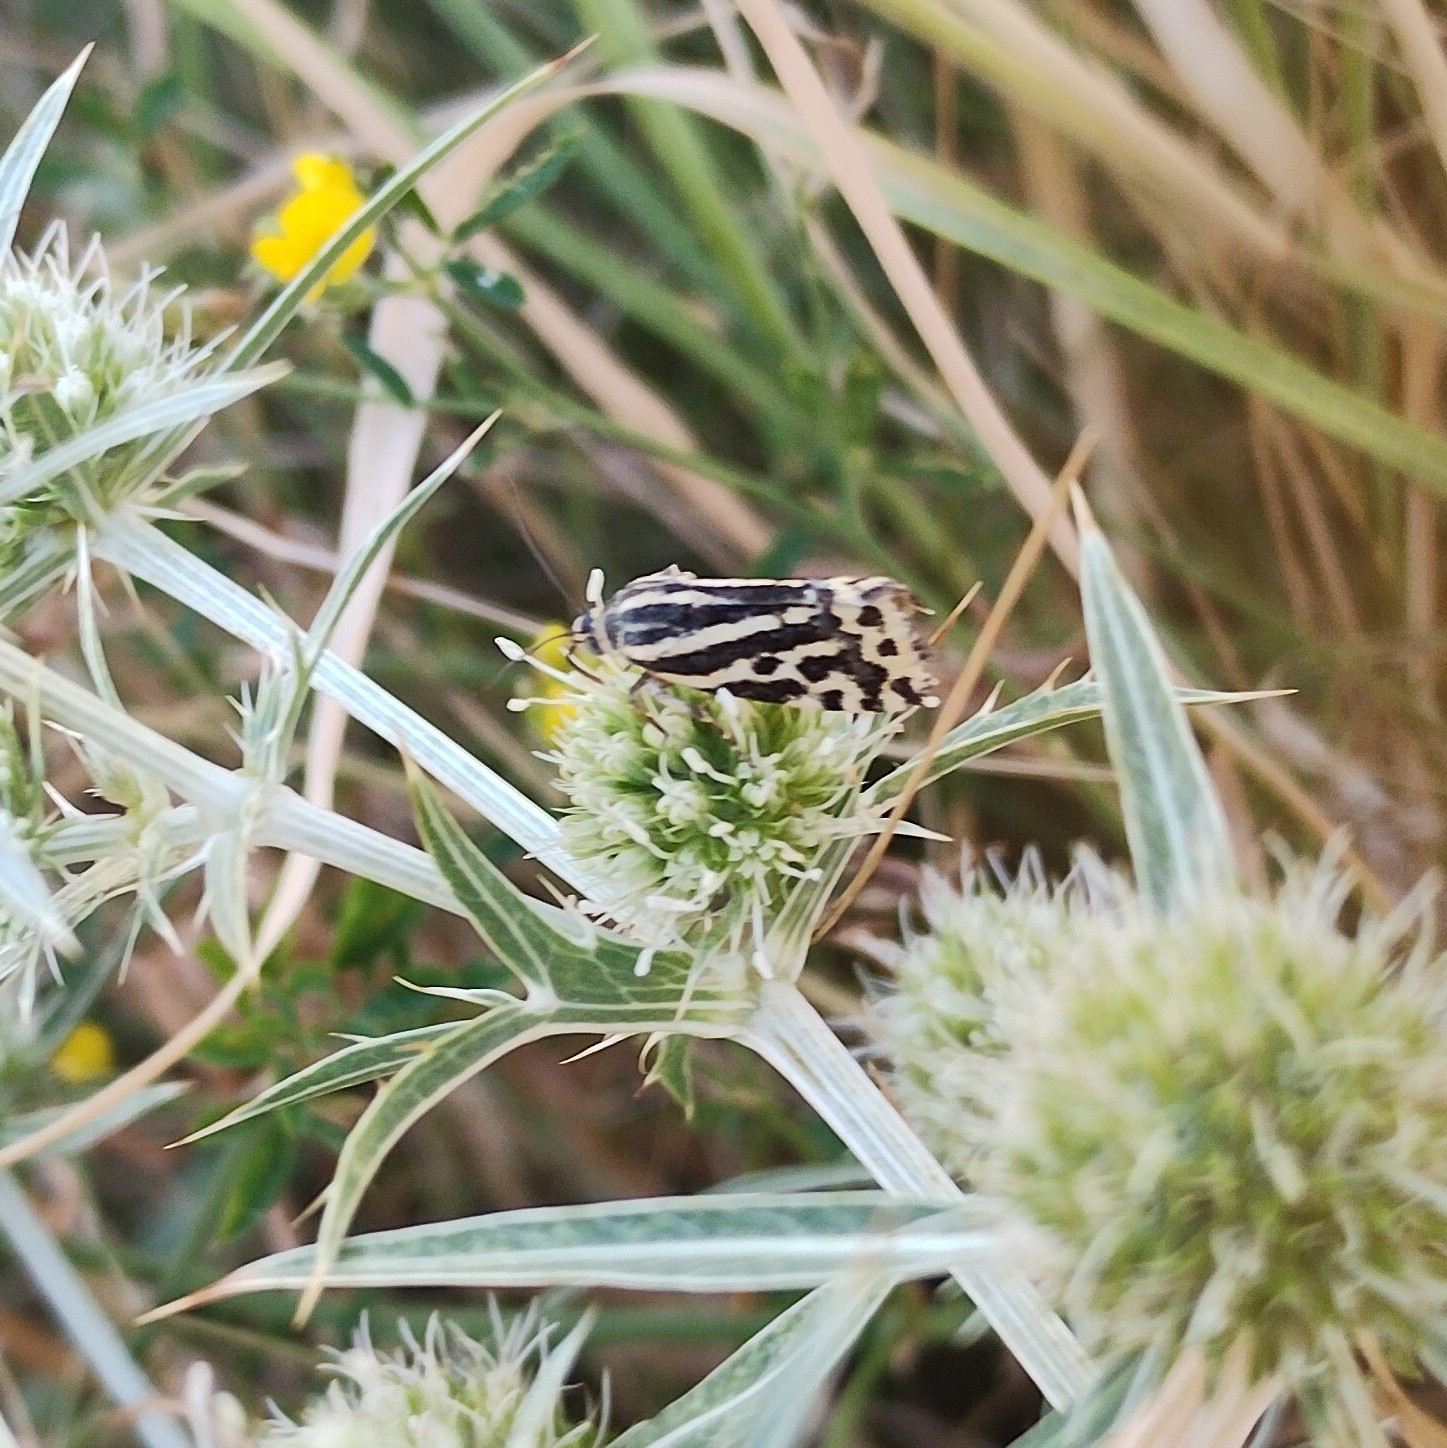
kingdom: Animalia
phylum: Arthropoda
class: Insecta
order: Lepidoptera
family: Noctuidae
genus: Acontia
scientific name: Acontia trabealis
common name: Spotted sulphur
